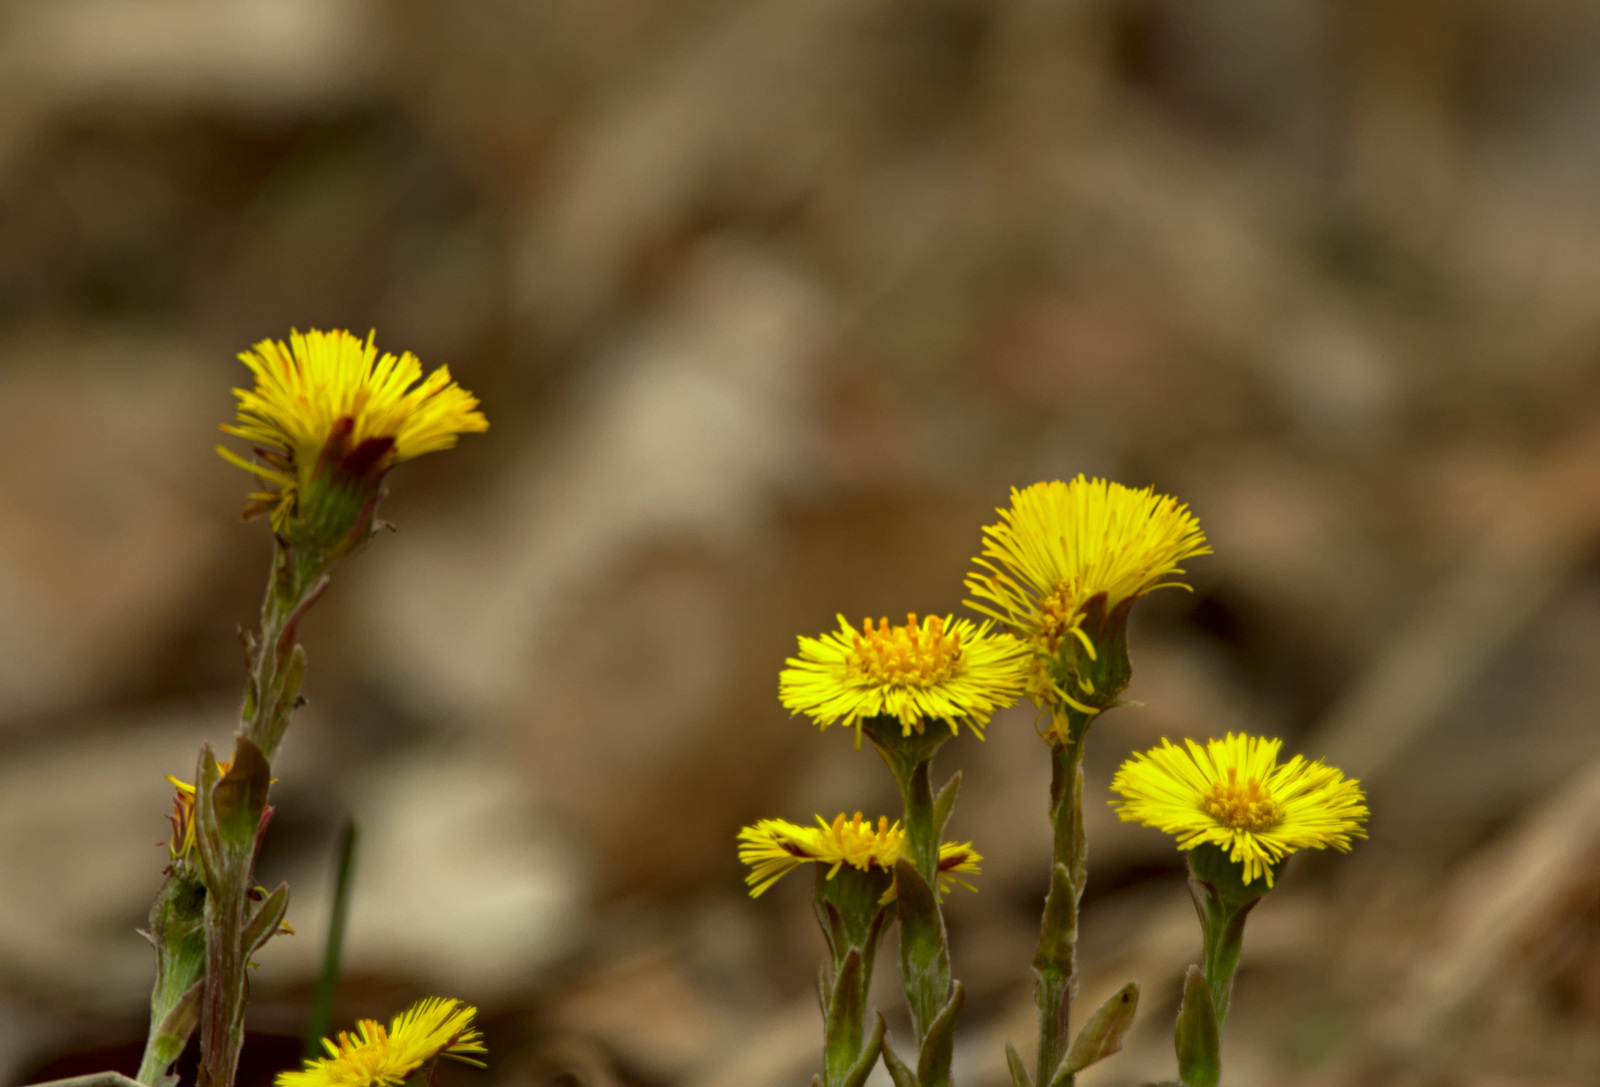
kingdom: Plantae
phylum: Tracheophyta
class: Magnoliopsida
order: Asterales
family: Asteraceae
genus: Tussilago
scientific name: Tussilago farfara
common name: Coltsfoot
